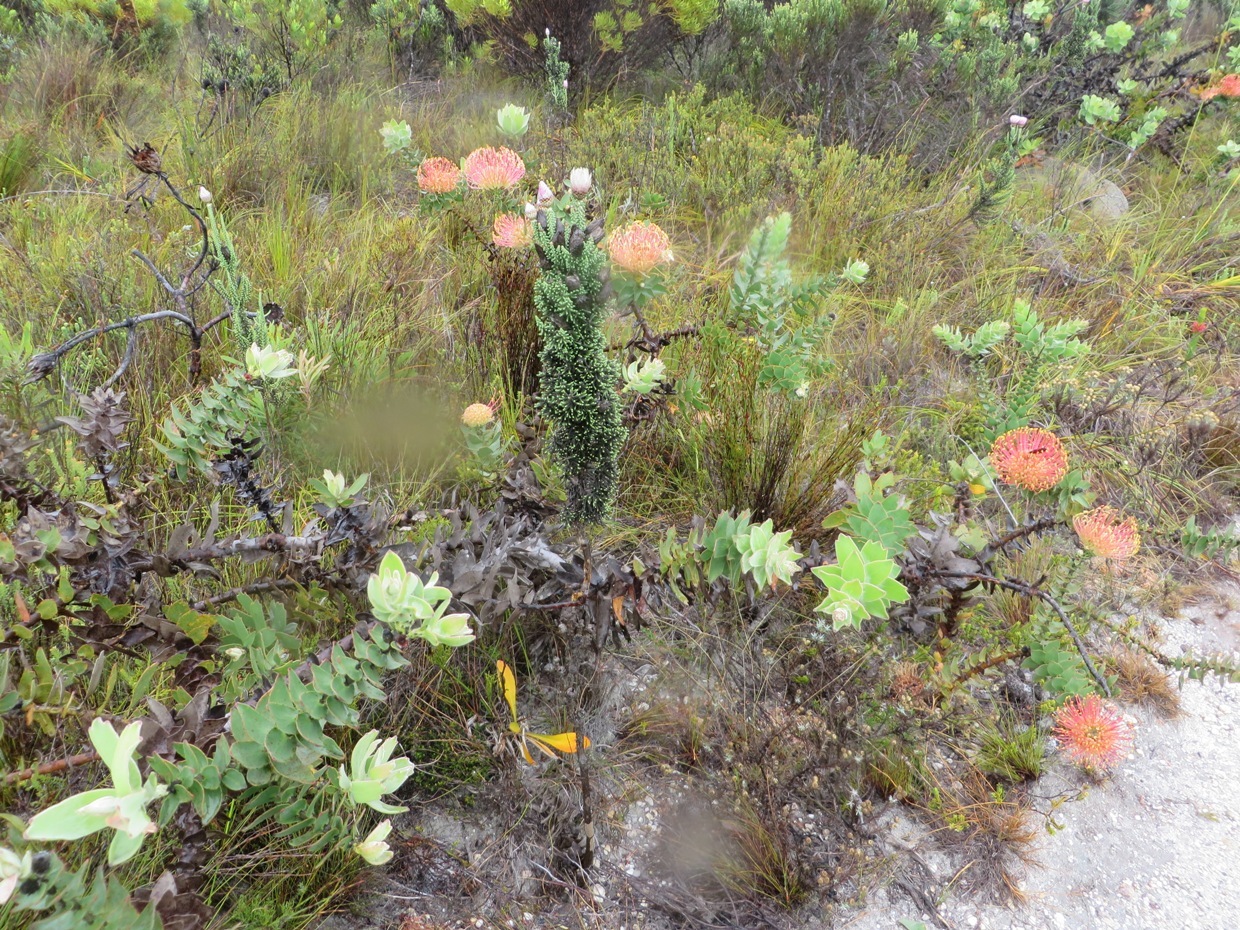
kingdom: Plantae
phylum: Tracheophyta
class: Magnoliopsida
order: Proteales
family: Proteaceae
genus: Leucospermum
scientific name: Leucospermum cordifolium
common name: Red pincushion-protea
